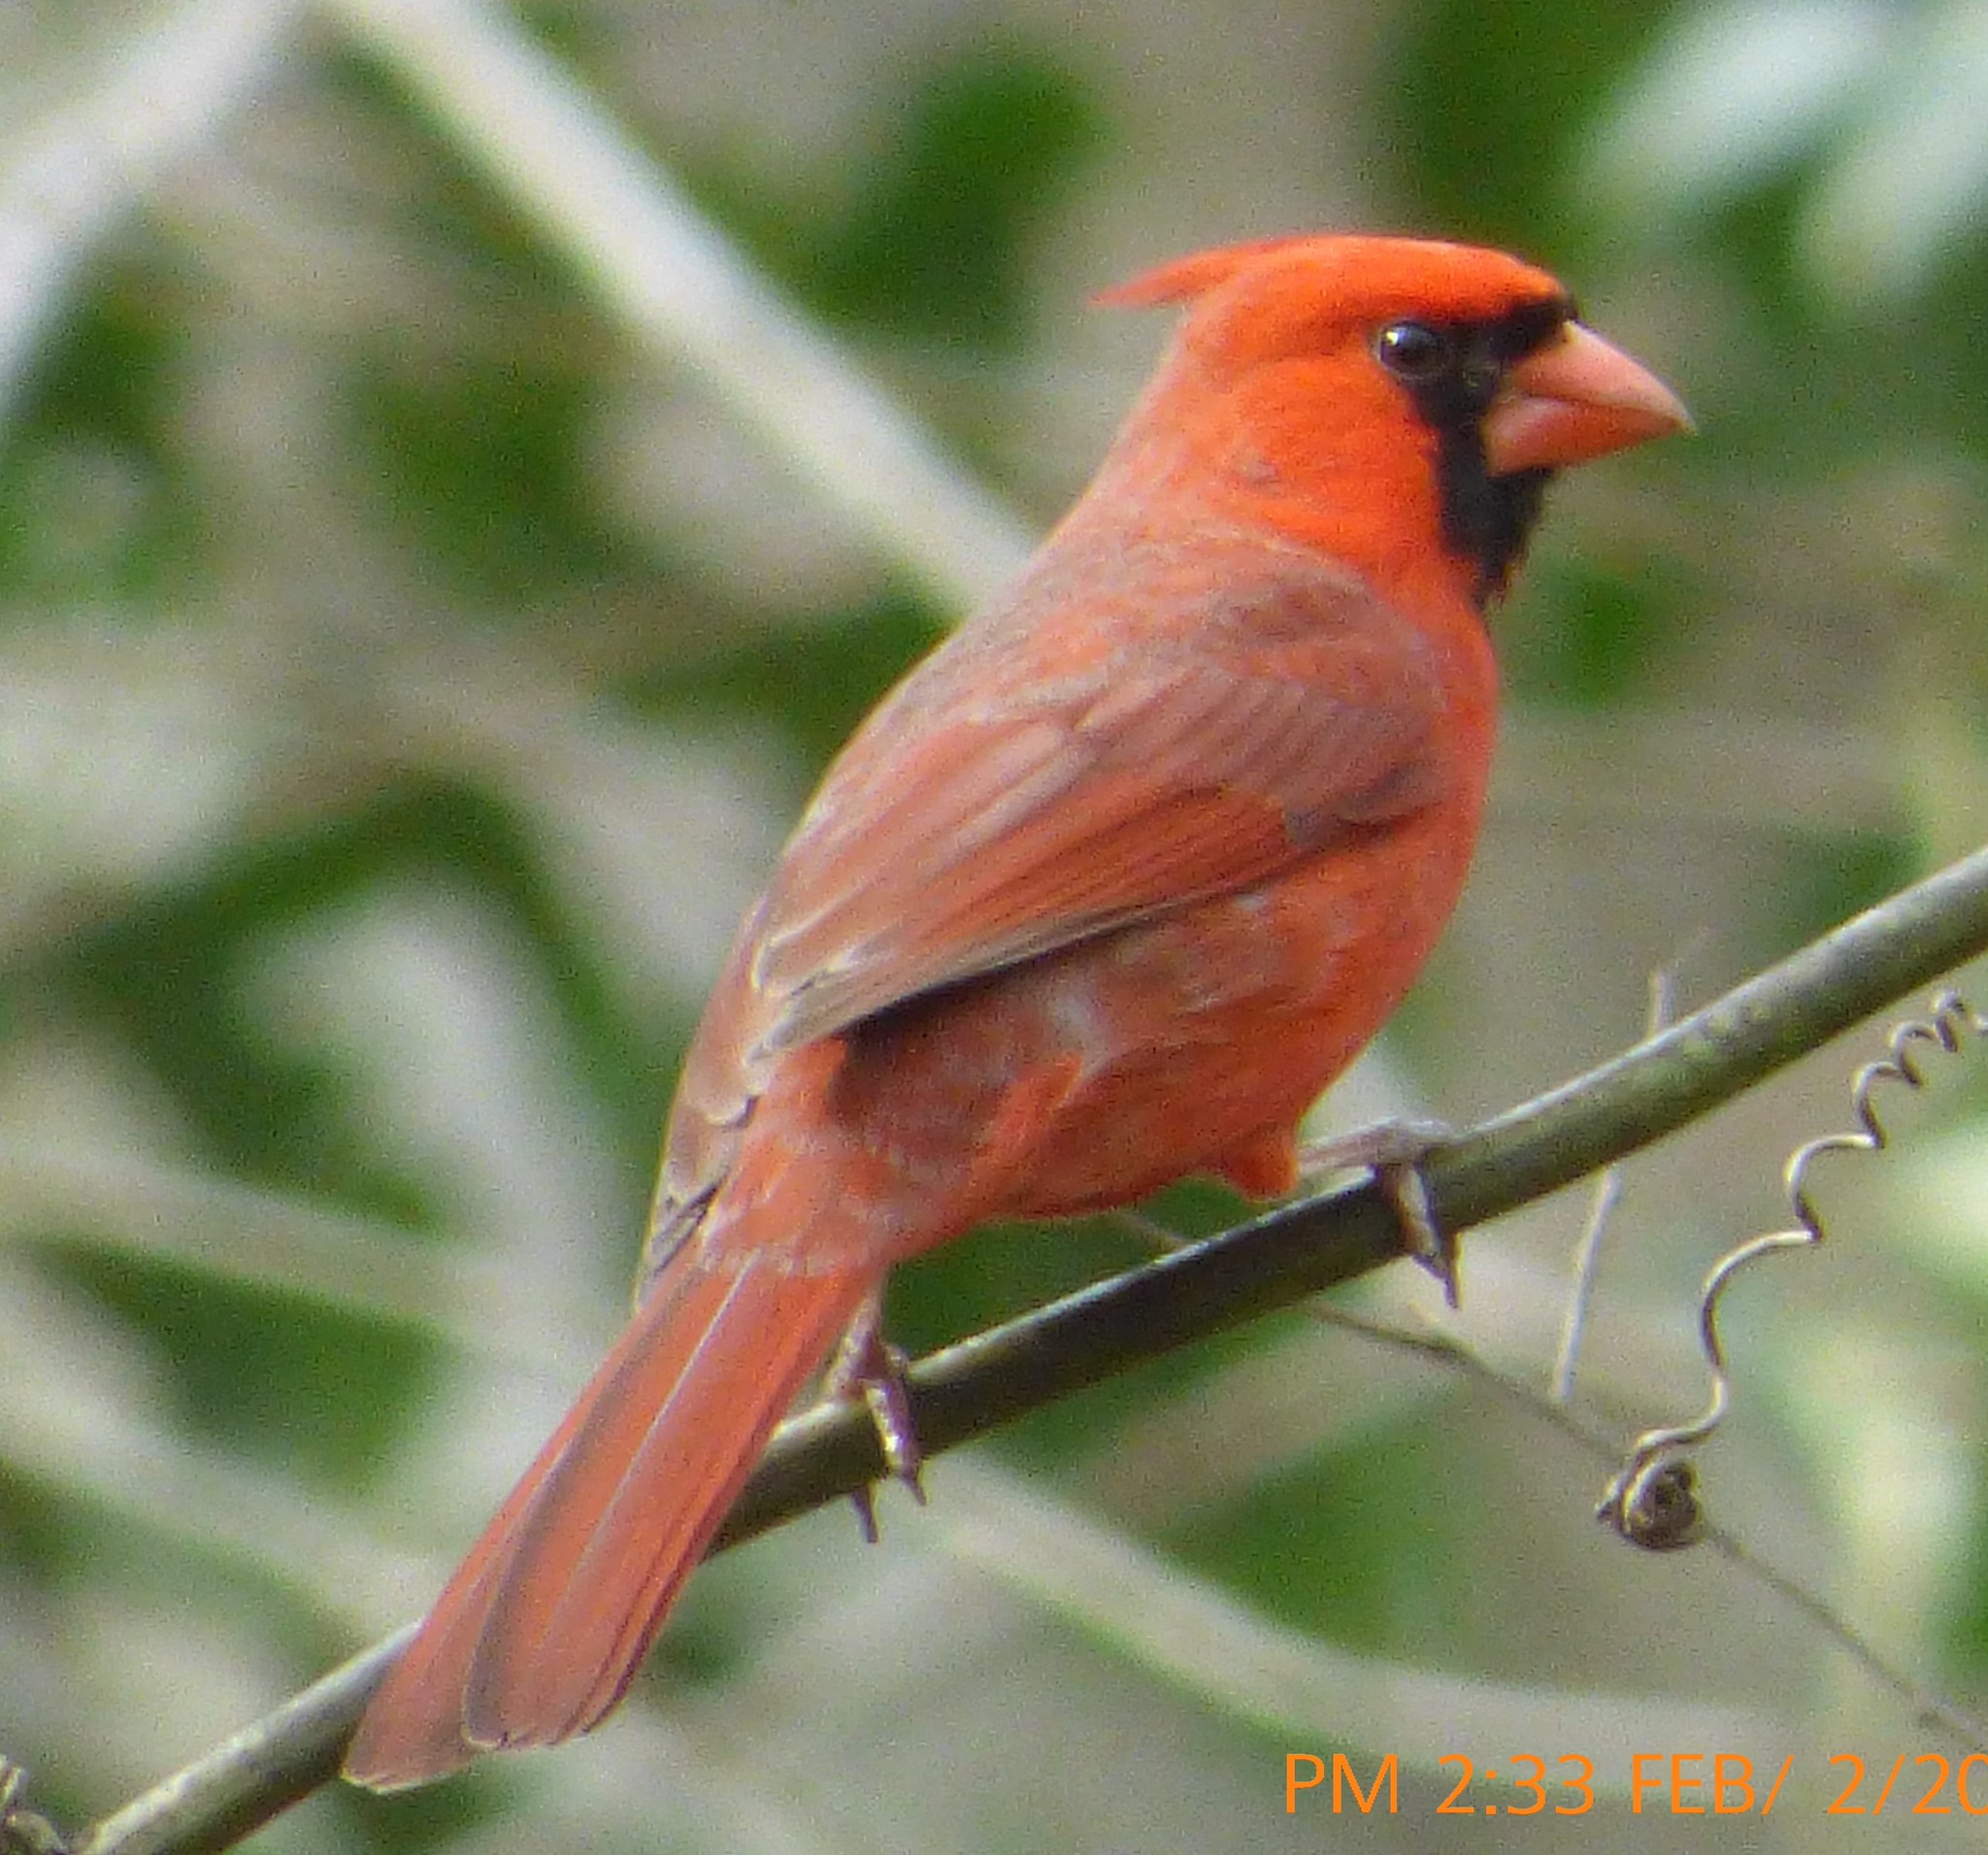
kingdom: Animalia
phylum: Chordata
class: Aves
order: Passeriformes
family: Cardinalidae
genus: Cardinalis
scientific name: Cardinalis cardinalis
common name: Northern cardinal
